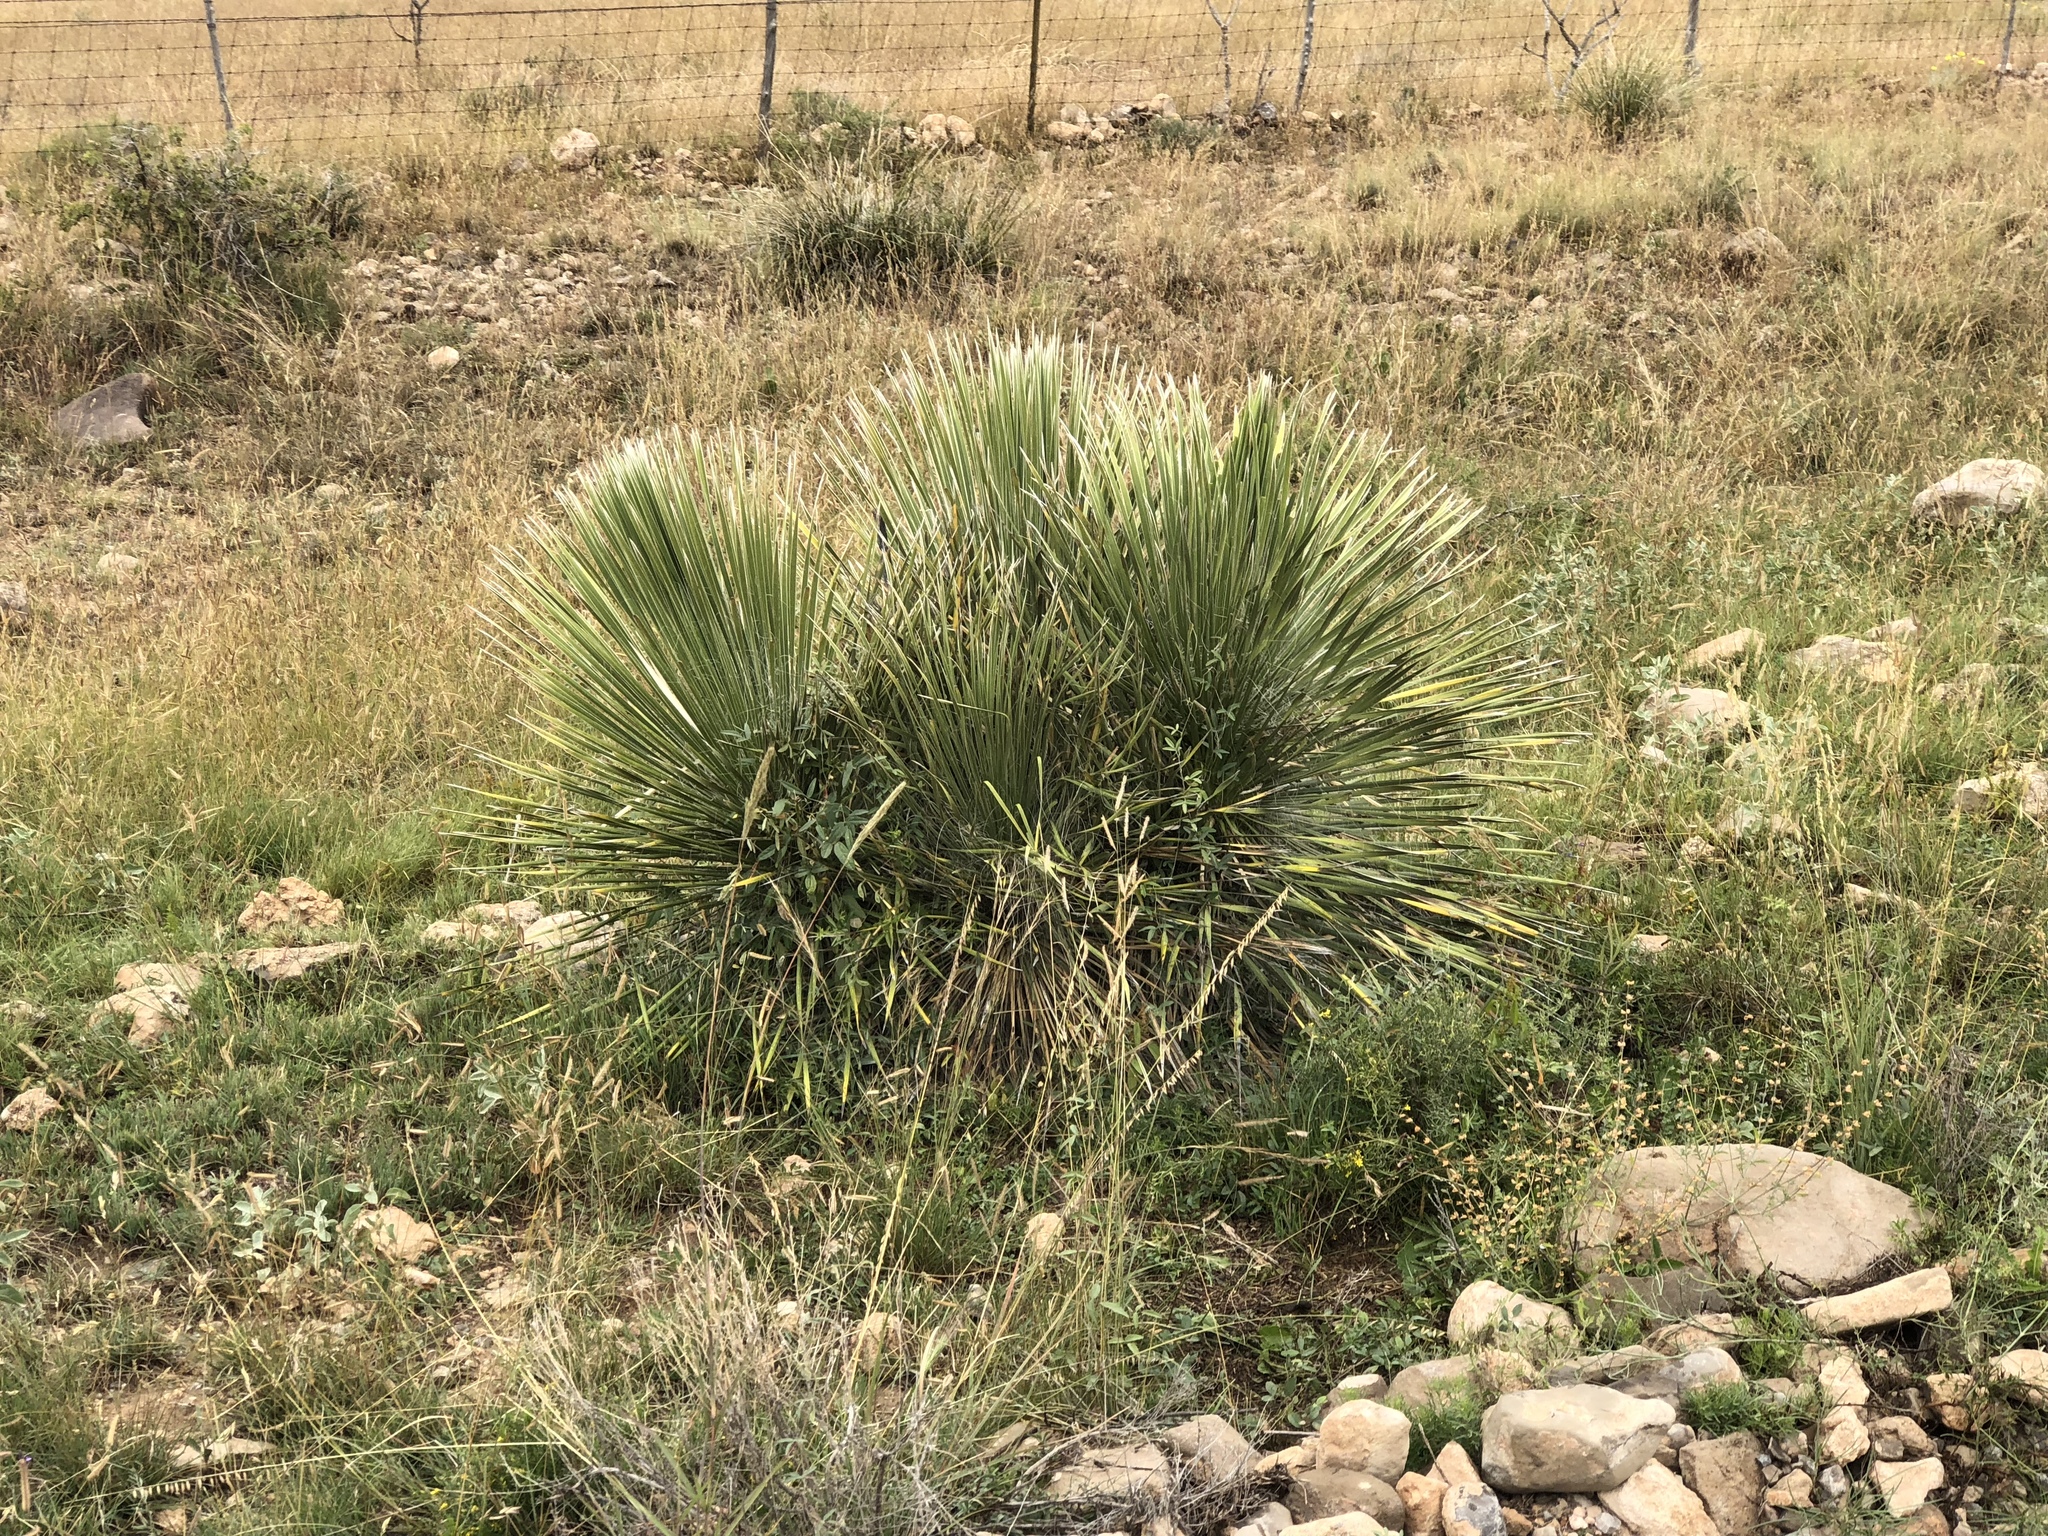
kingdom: Plantae
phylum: Tracheophyta
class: Liliopsida
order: Asparagales
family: Asparagaceae
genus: Yucca
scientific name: Yucca elata
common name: Palmella
